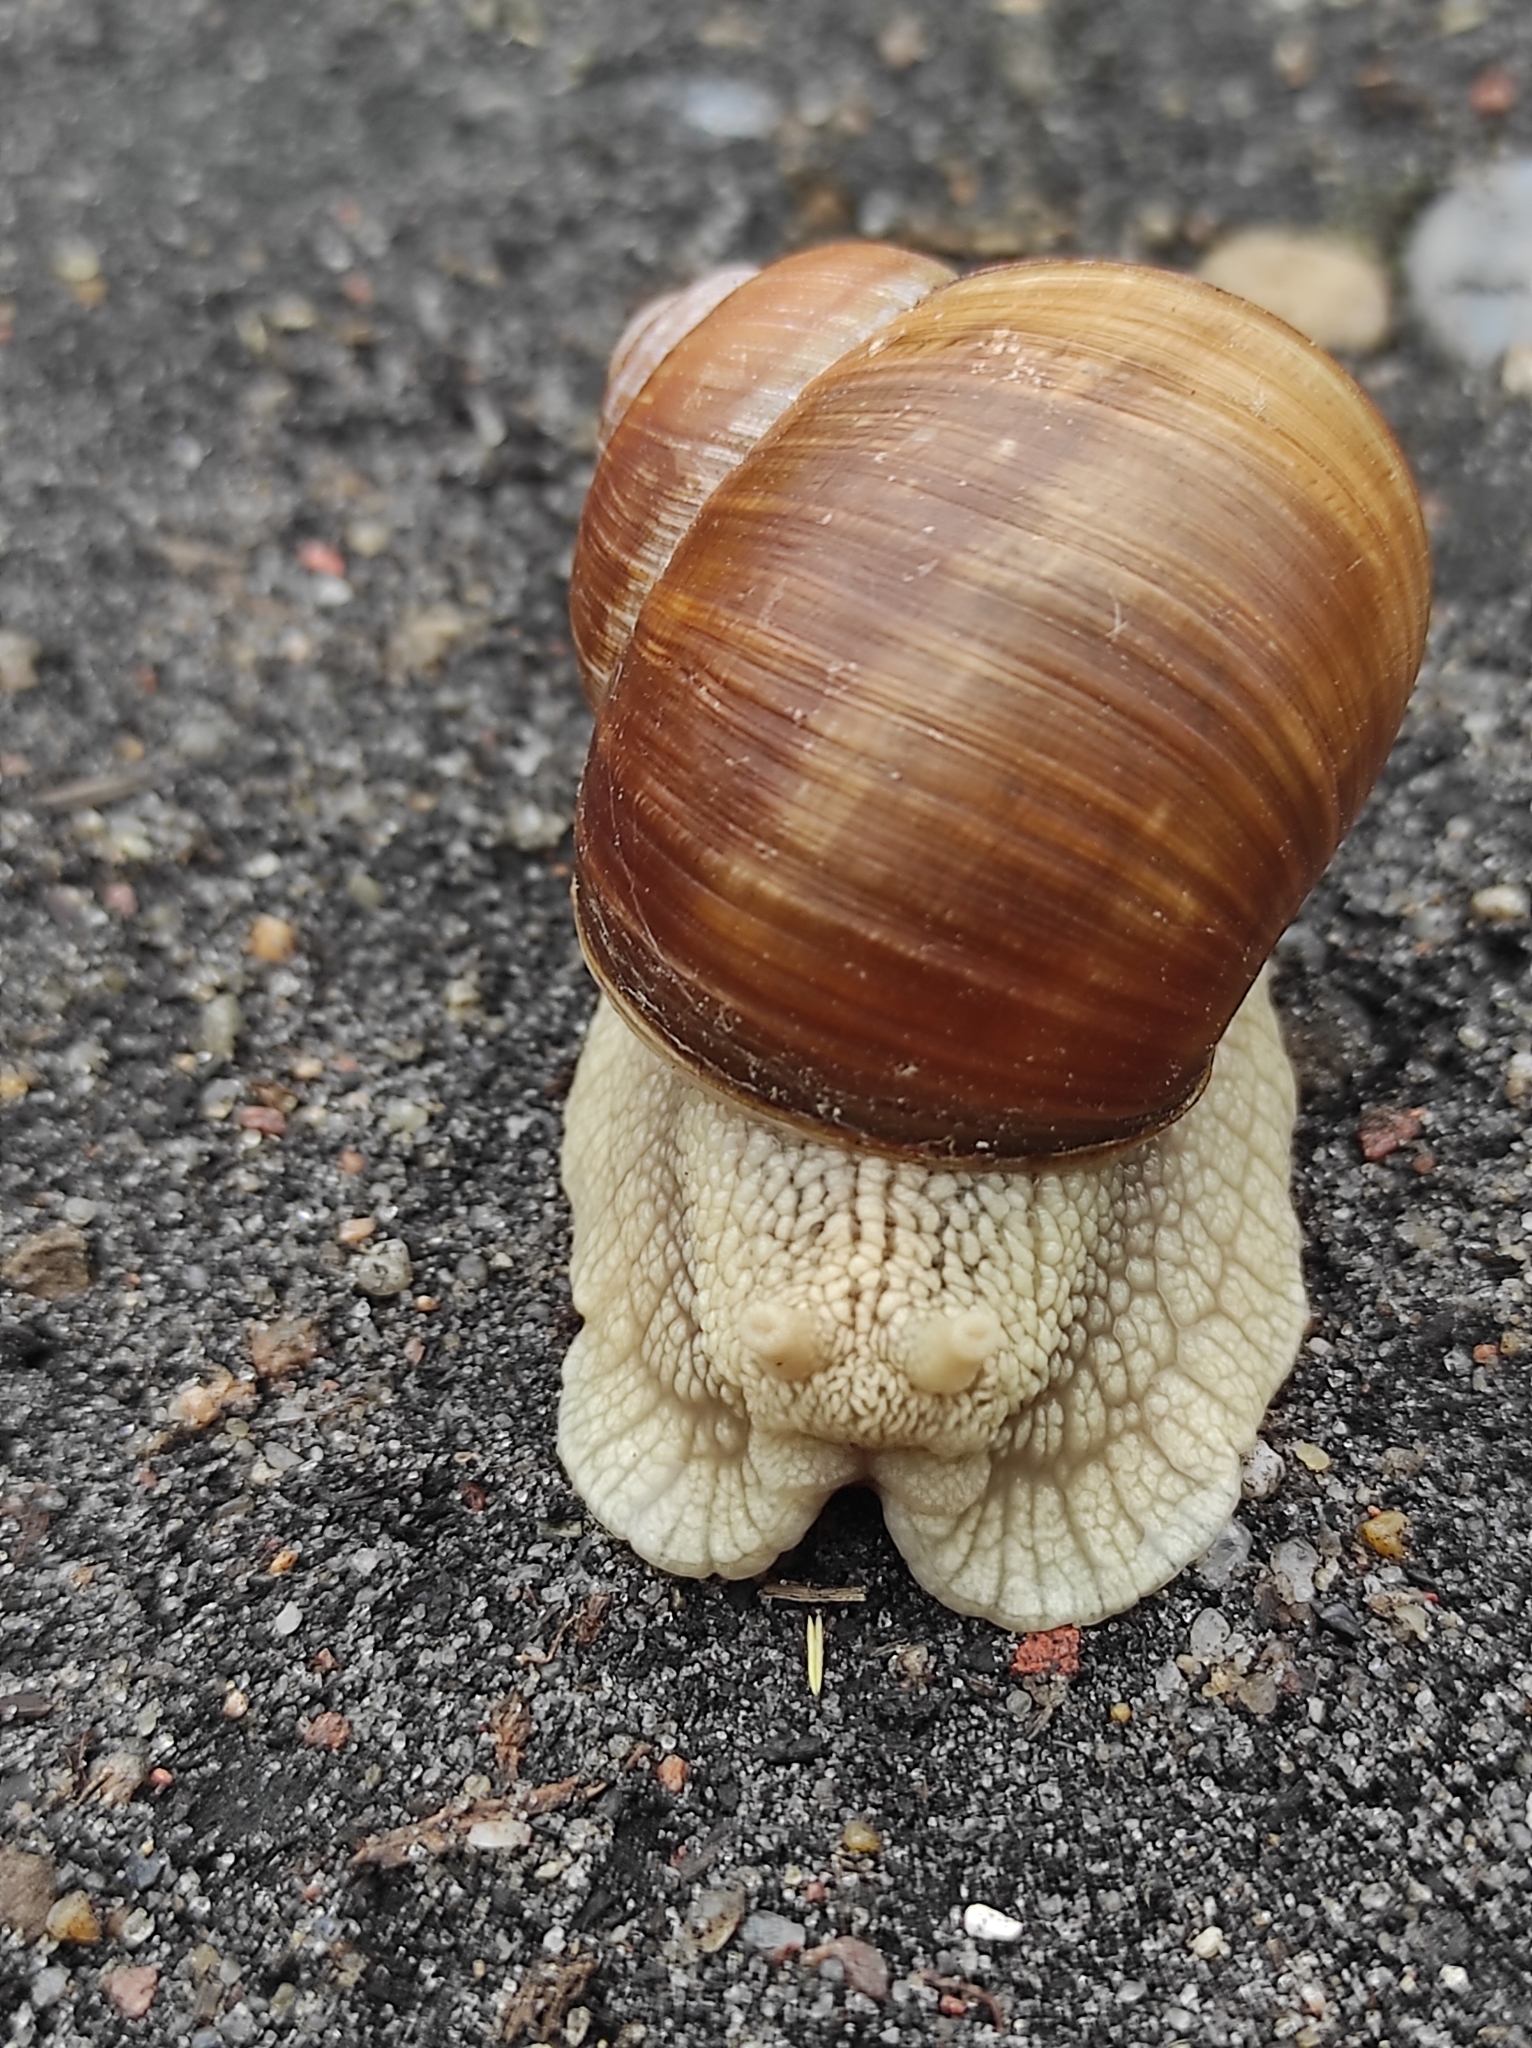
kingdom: Animalia
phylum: Mollusca
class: Gastropoda
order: Stylommatophora
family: Helicidae
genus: Helix
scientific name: Helix pomatia
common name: Roman snail
